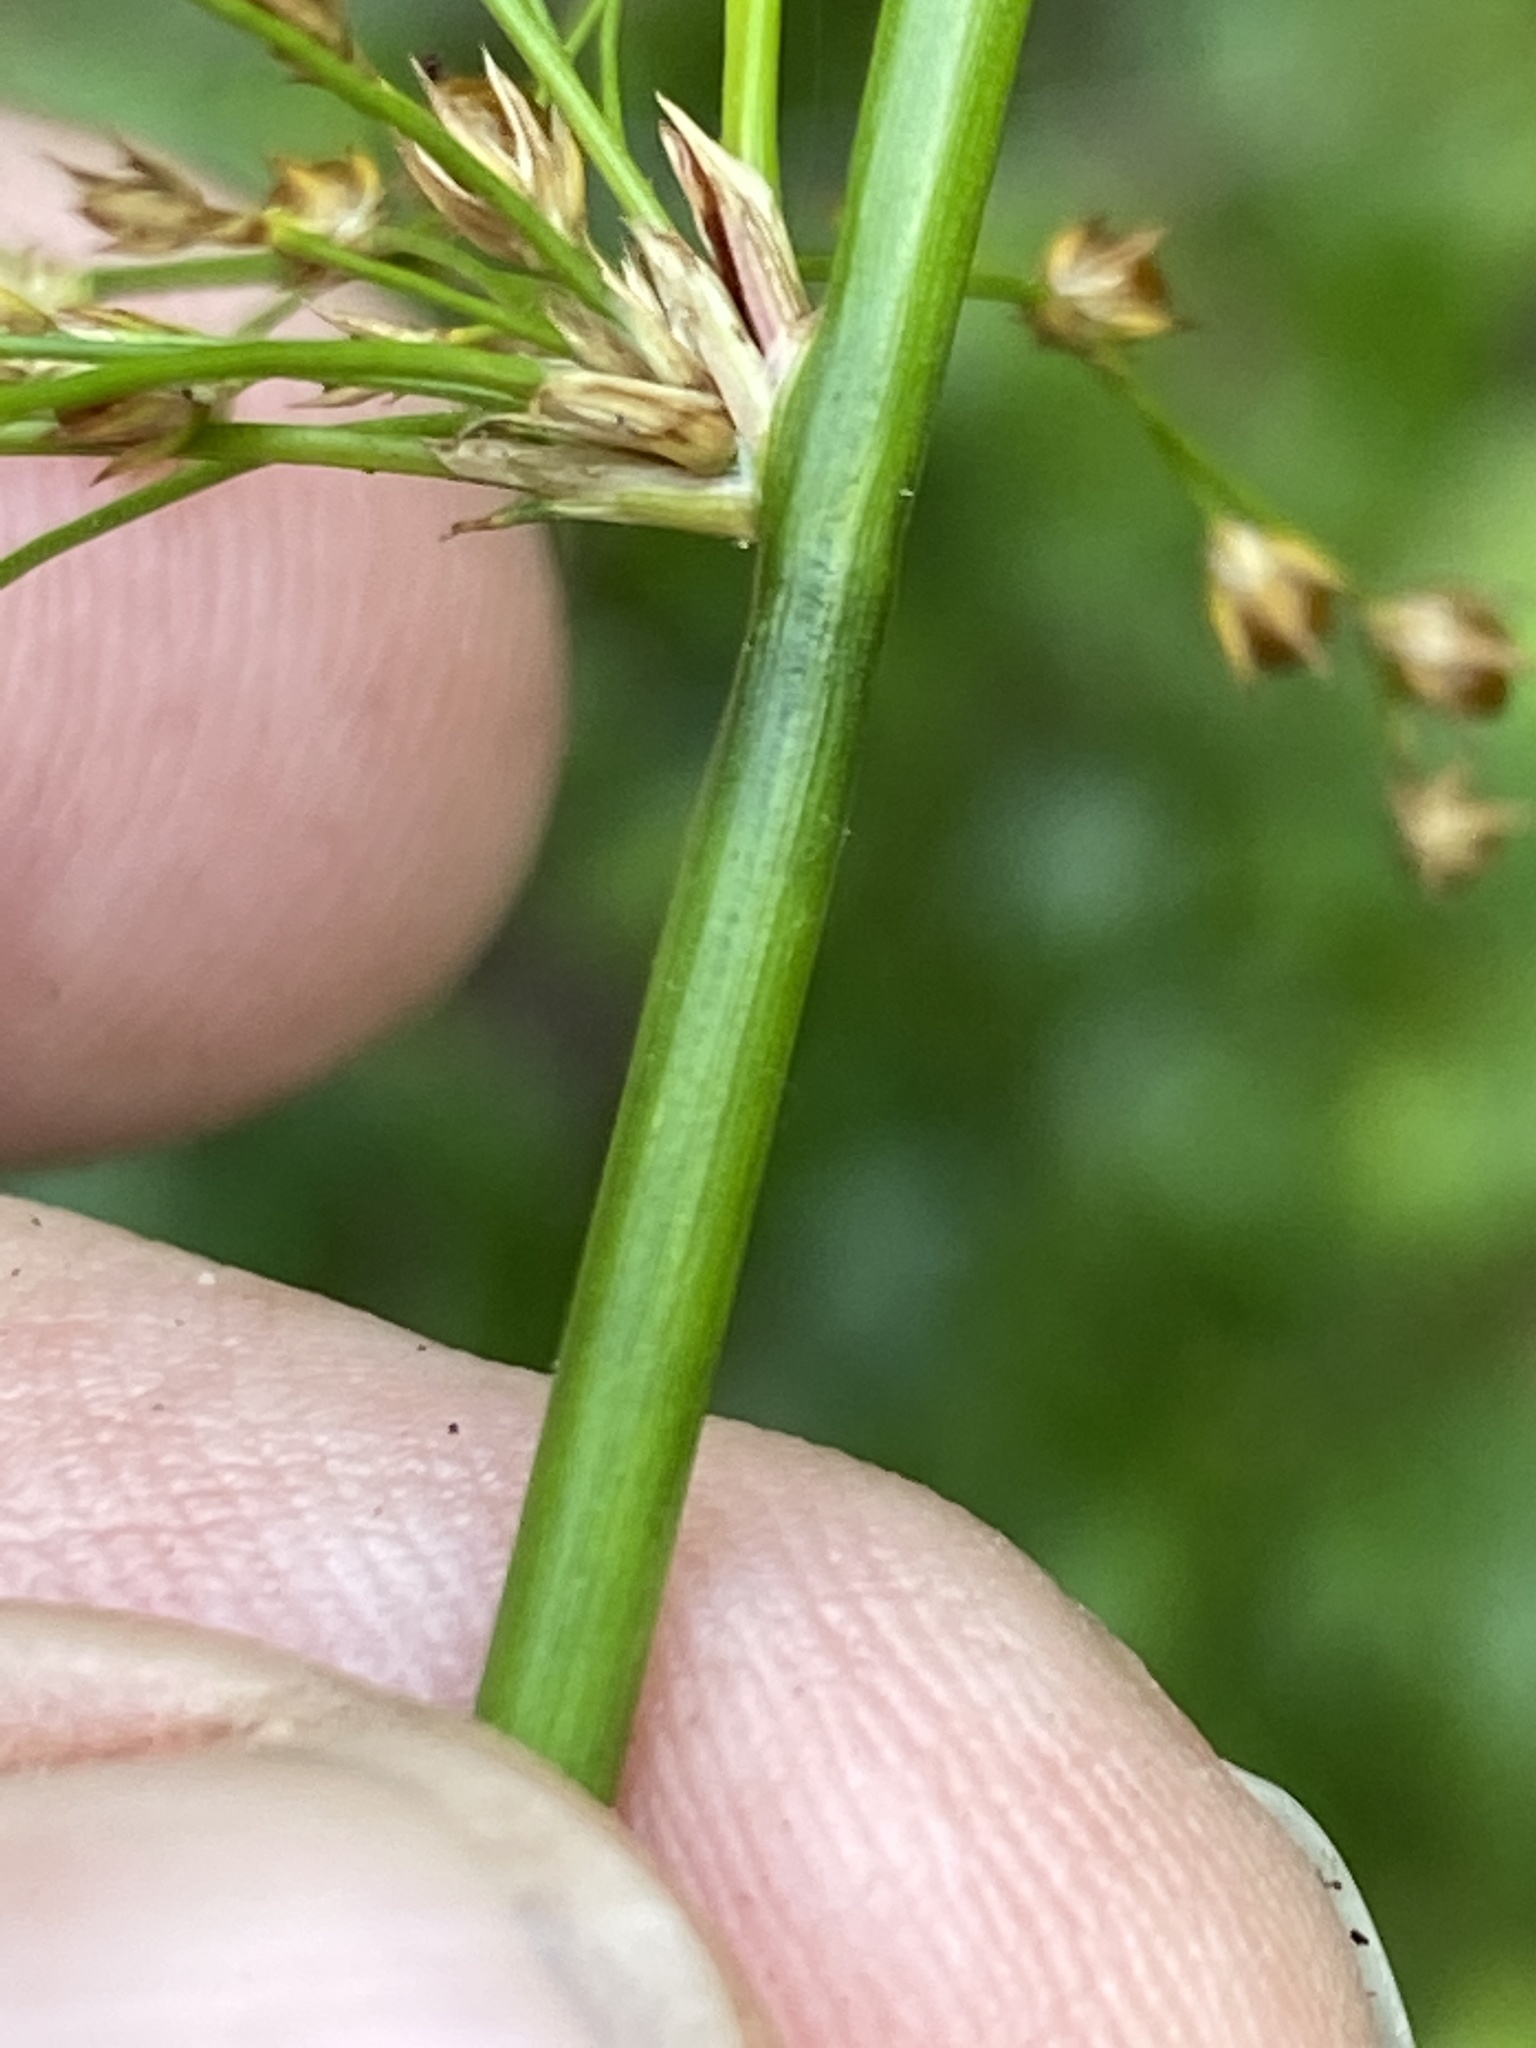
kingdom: Plantae
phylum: Tracheophyta
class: Liliopsida
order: Poales
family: Juncaceae
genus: Juncus
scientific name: Juncus effusus
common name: Soft rush
